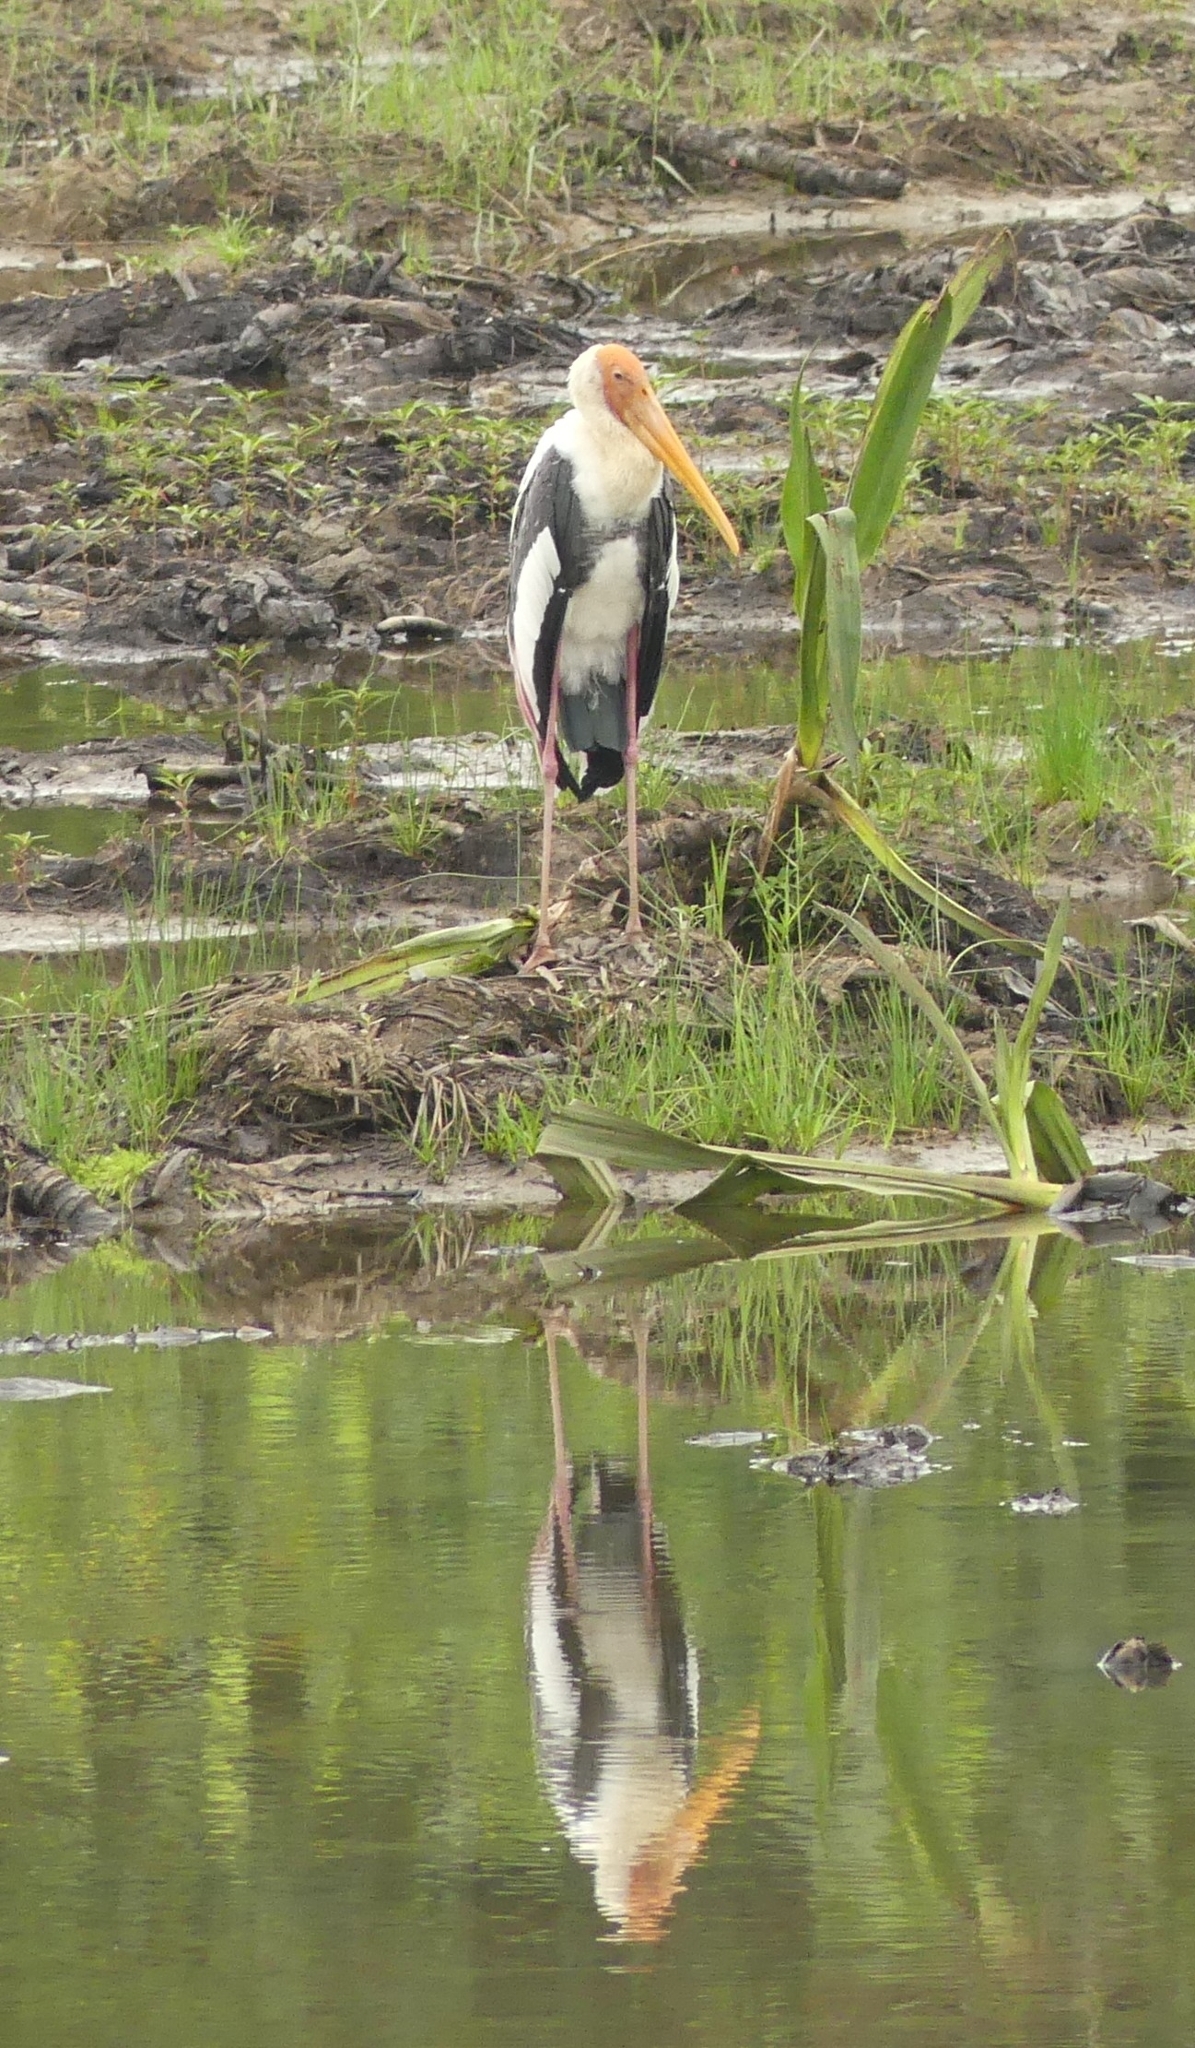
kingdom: Animalia
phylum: Chordata
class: Aves
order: Ciconiiformes
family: Ciconiidae
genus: Mycteria
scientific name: Mycteria leucocephala
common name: Painted stork
